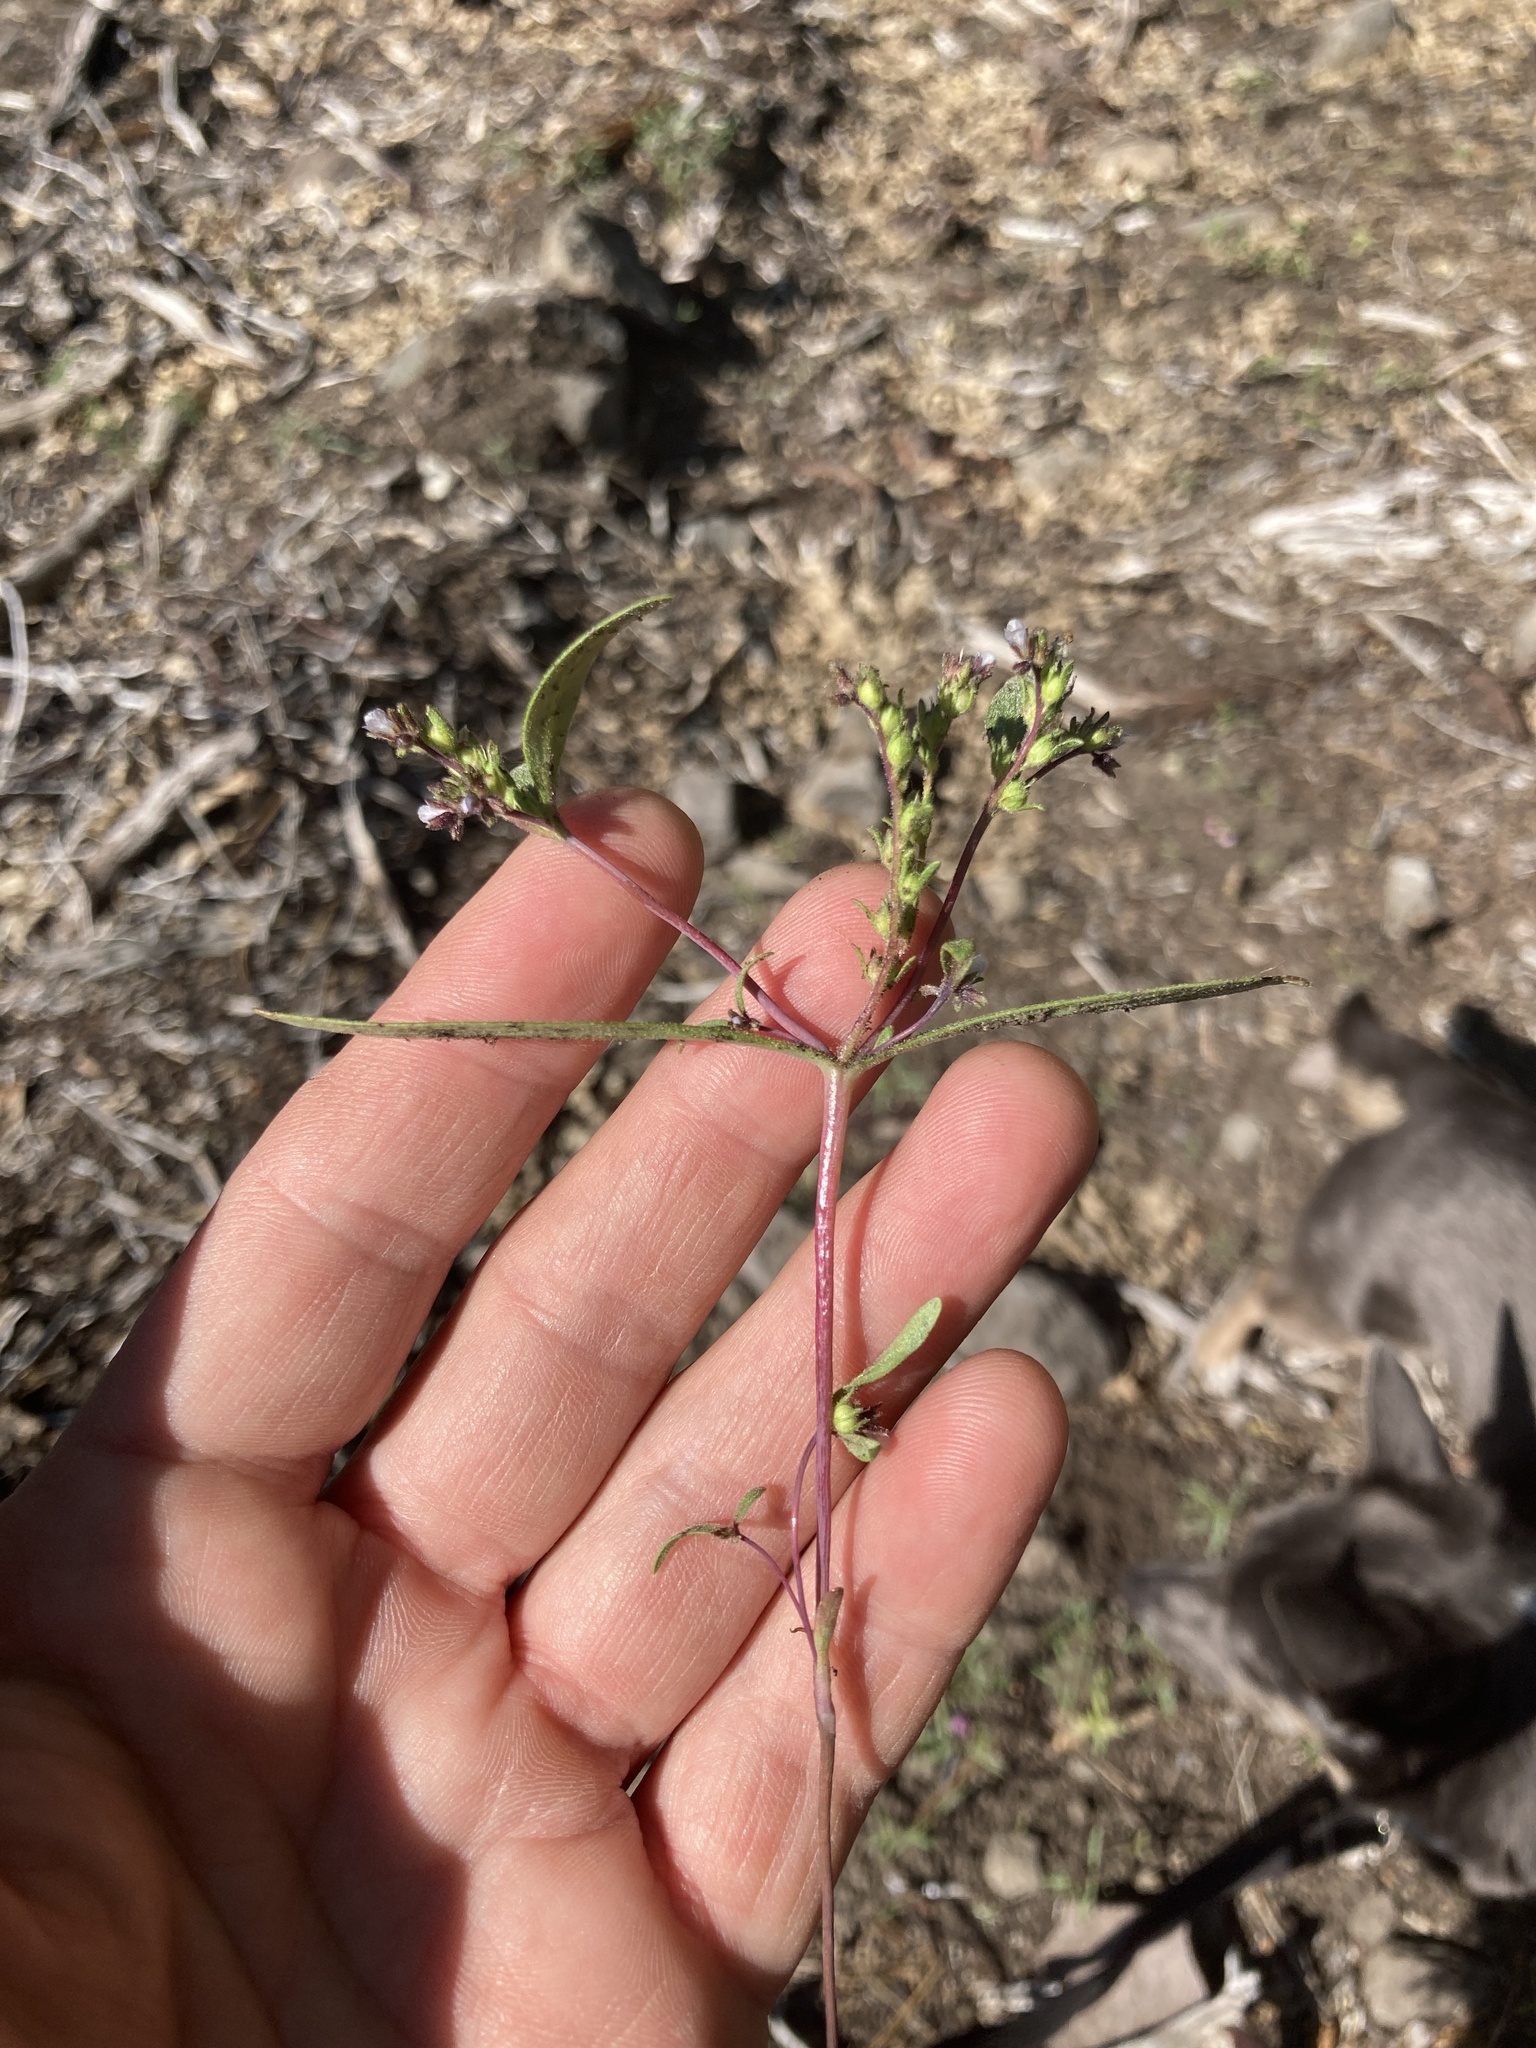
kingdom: Plantae
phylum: Tracheophyta
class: Magnoliopsida
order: Boraginales
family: Hydrophyllaceae
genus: Phacelia
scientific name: Phacelia racemosa
